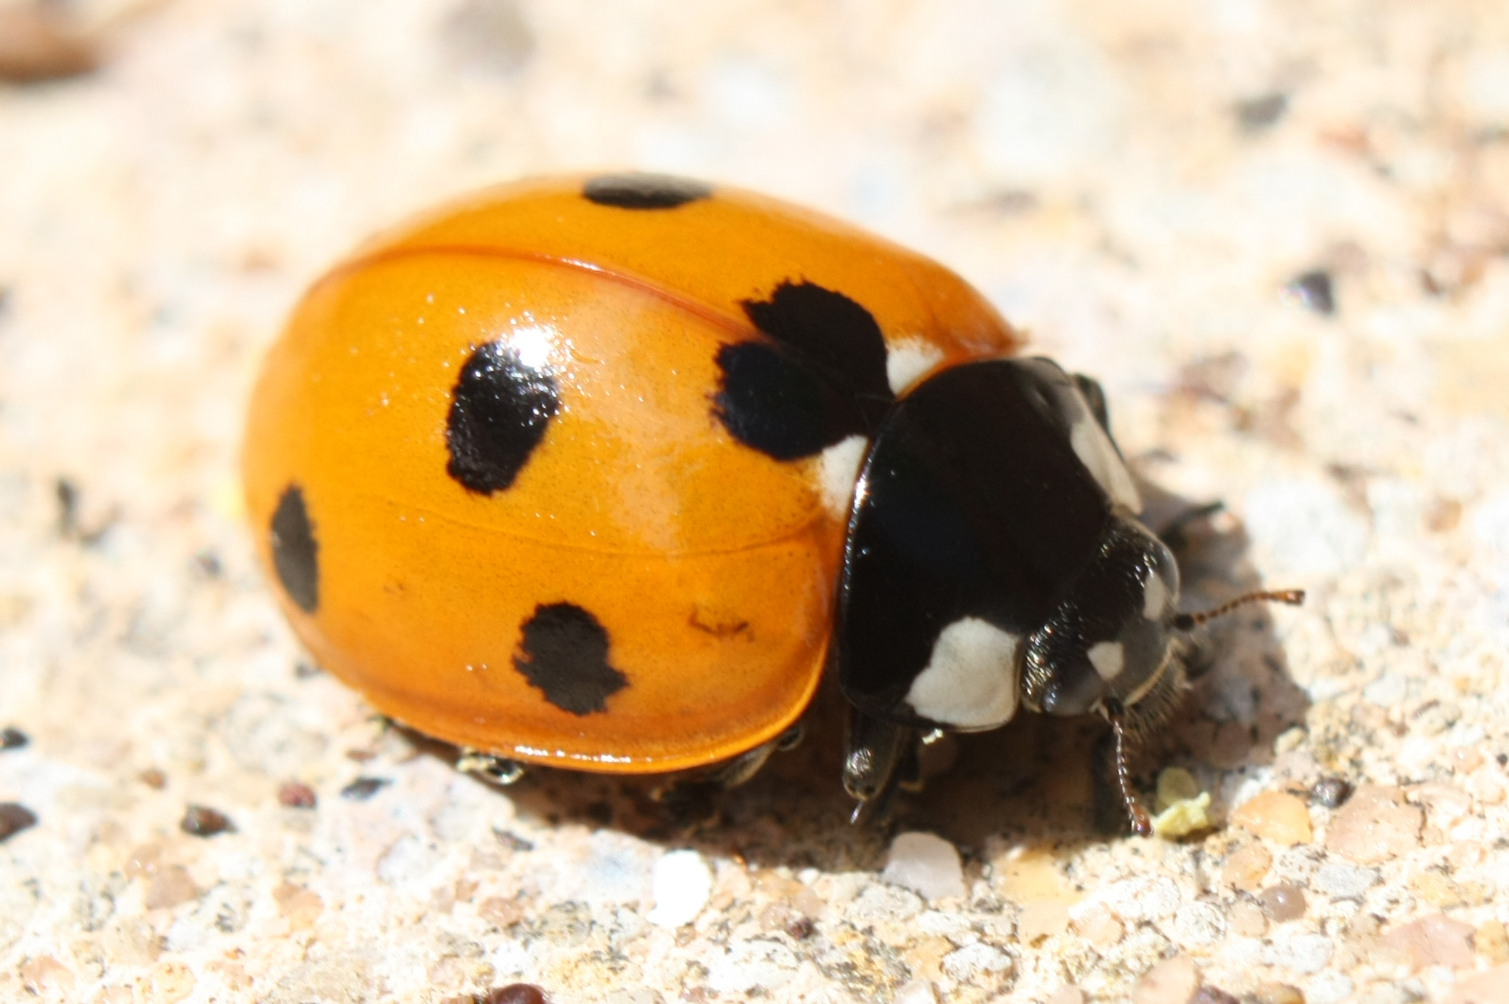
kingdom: Animalia
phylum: Arthropoda
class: Insecta
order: Coleoptera
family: Coccinellidae
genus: Coccinella
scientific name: Coccinella septempunctata
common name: Sevenspotted lady beetle
